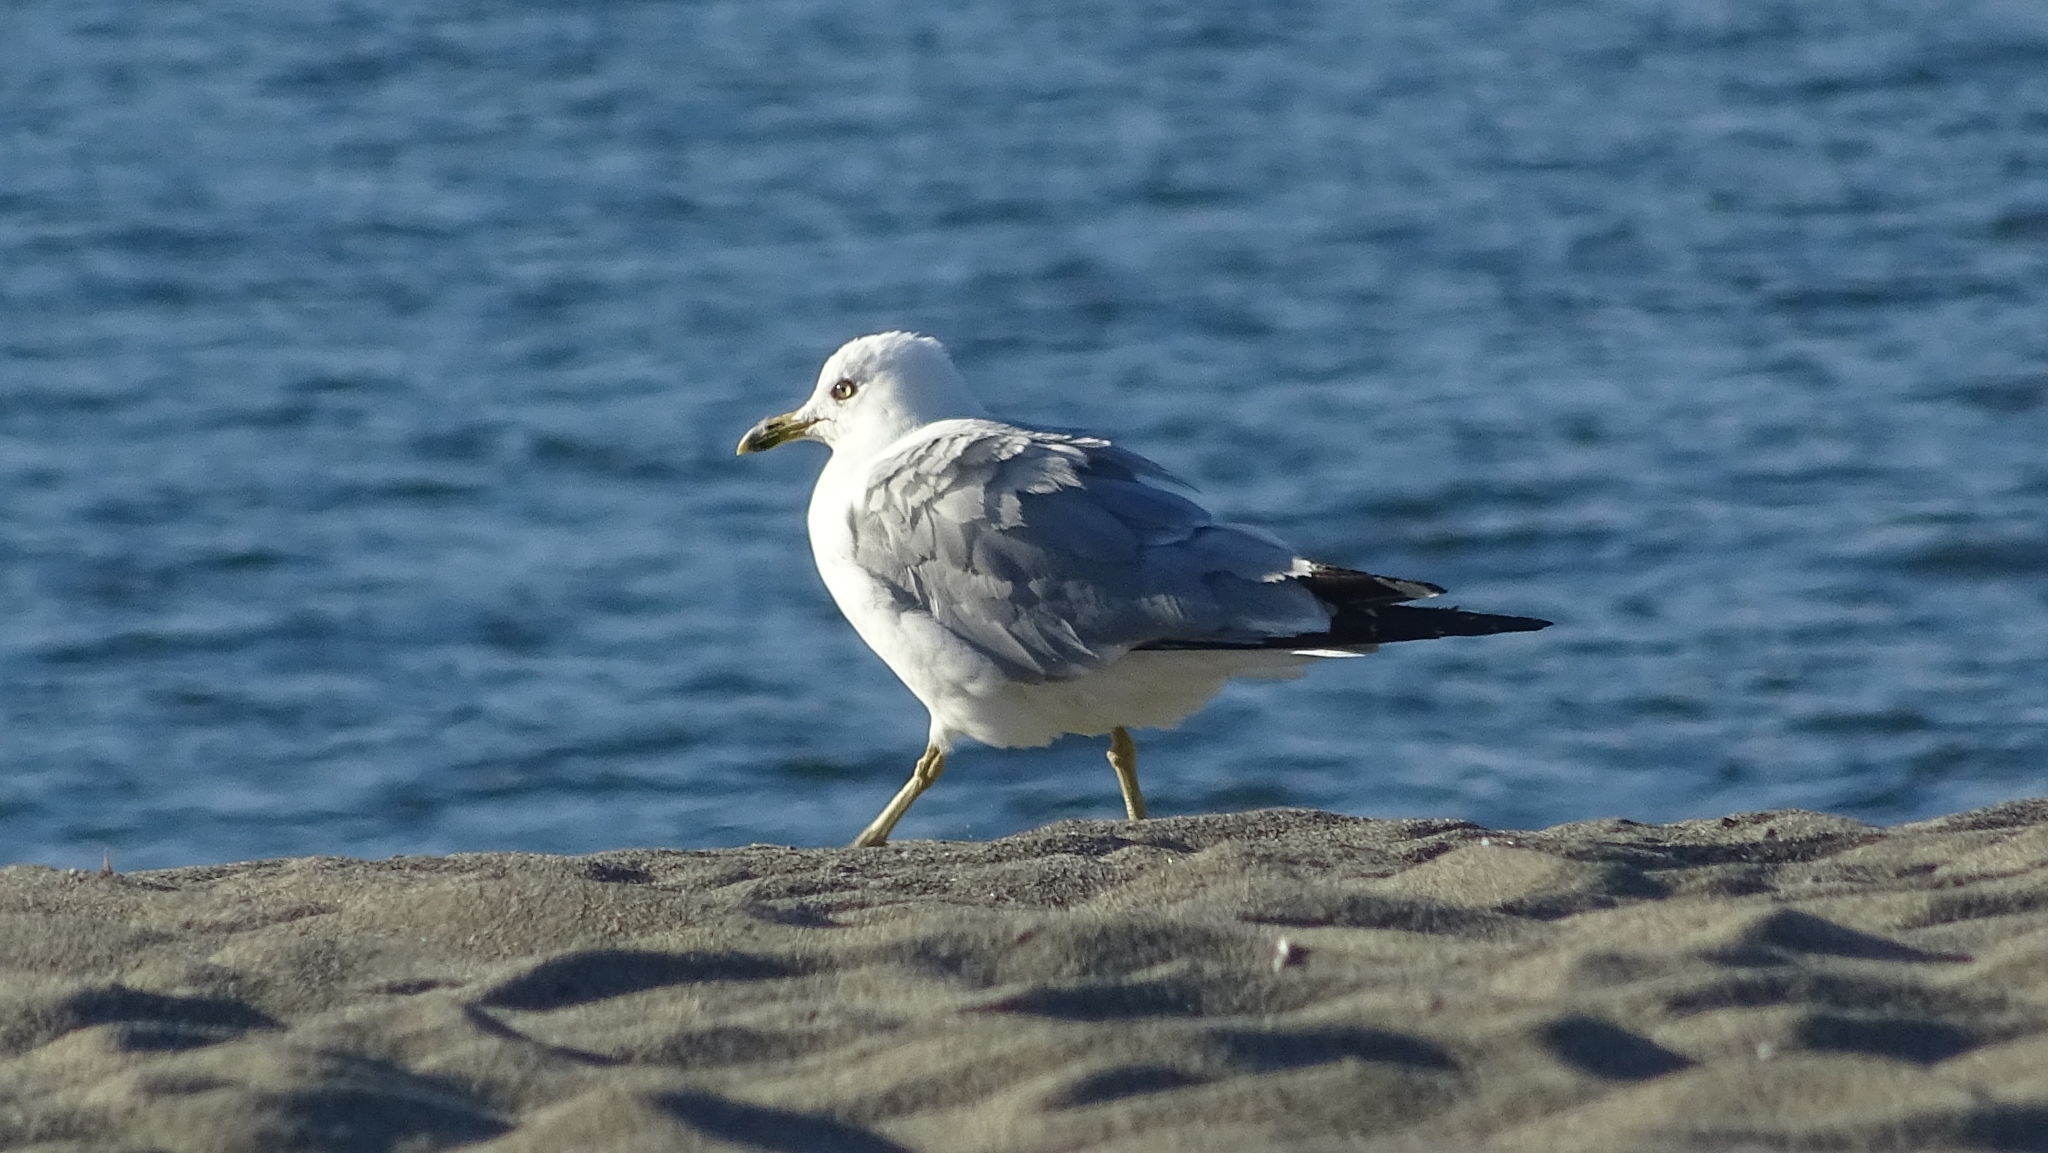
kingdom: Animalia
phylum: Chordata
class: Aves
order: Charadriiformes
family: Laridae
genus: Larus
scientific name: Larus delawarensis
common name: Ring-billed gull
